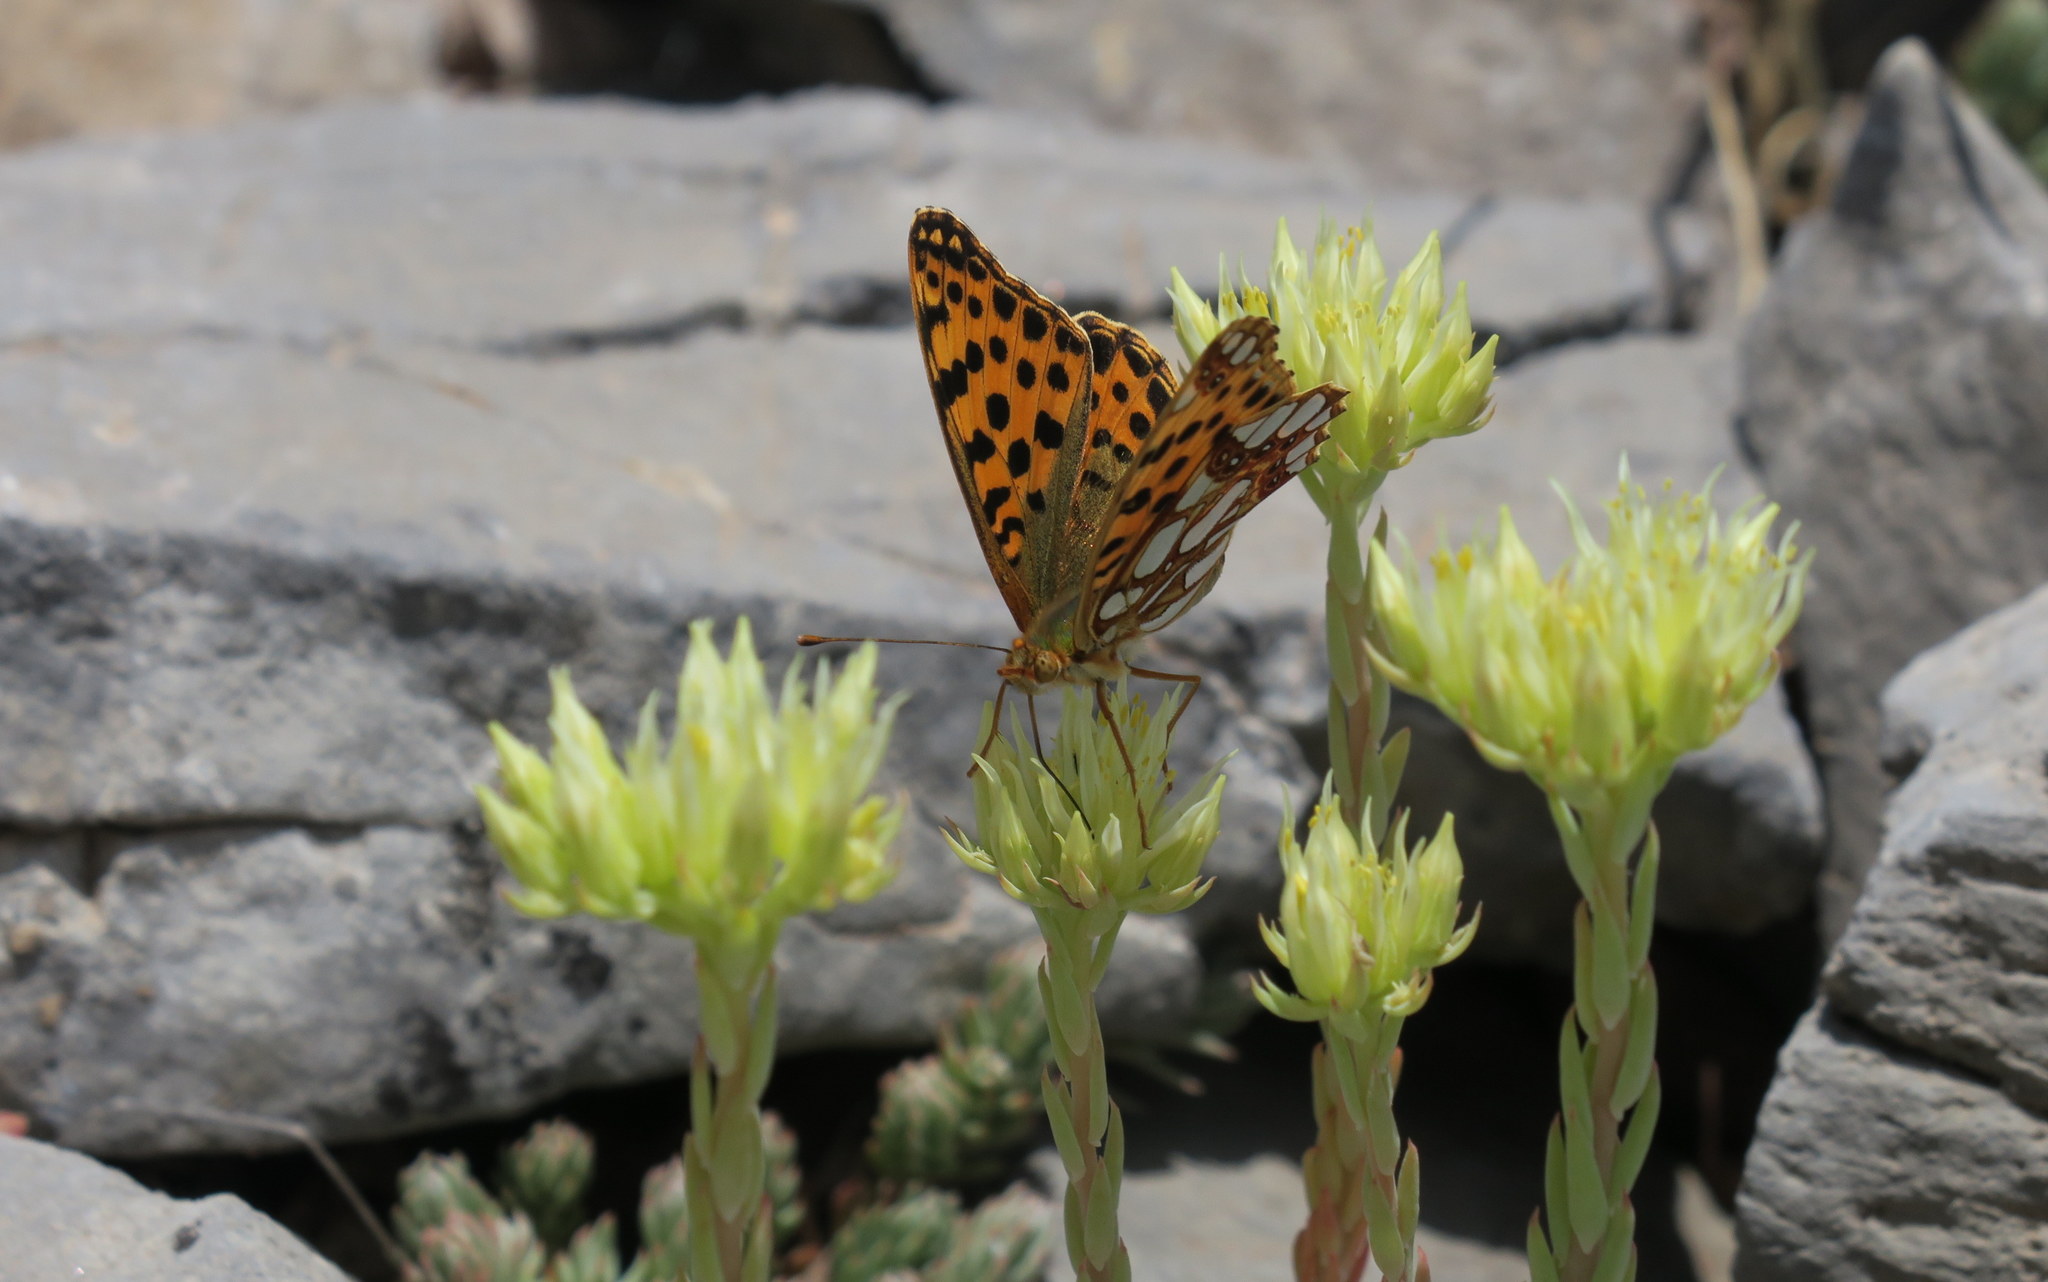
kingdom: Animalia
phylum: Arthropoda
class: Insecta
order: Lepidoptera
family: Nymphalidae
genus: Issoria
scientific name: Issoria lathonia
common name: Queen of spain fritillary
